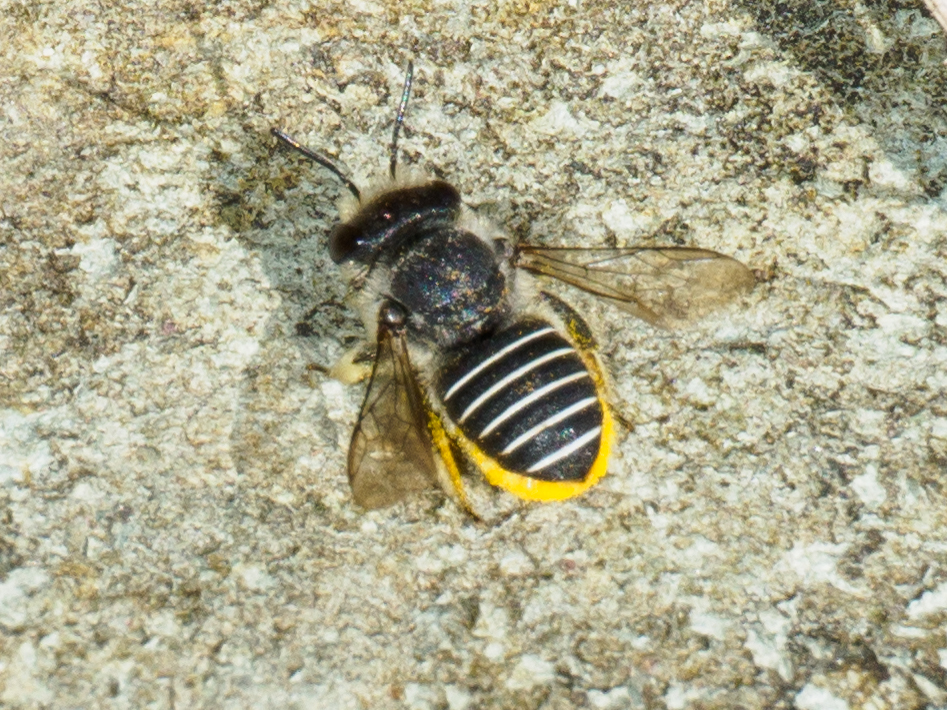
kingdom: Animalia
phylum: Arthropoda
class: Insecta
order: Hymenoptera
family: Megachilidae
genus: Pseudoanthidium
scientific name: Pseudoanthidium repetitum
